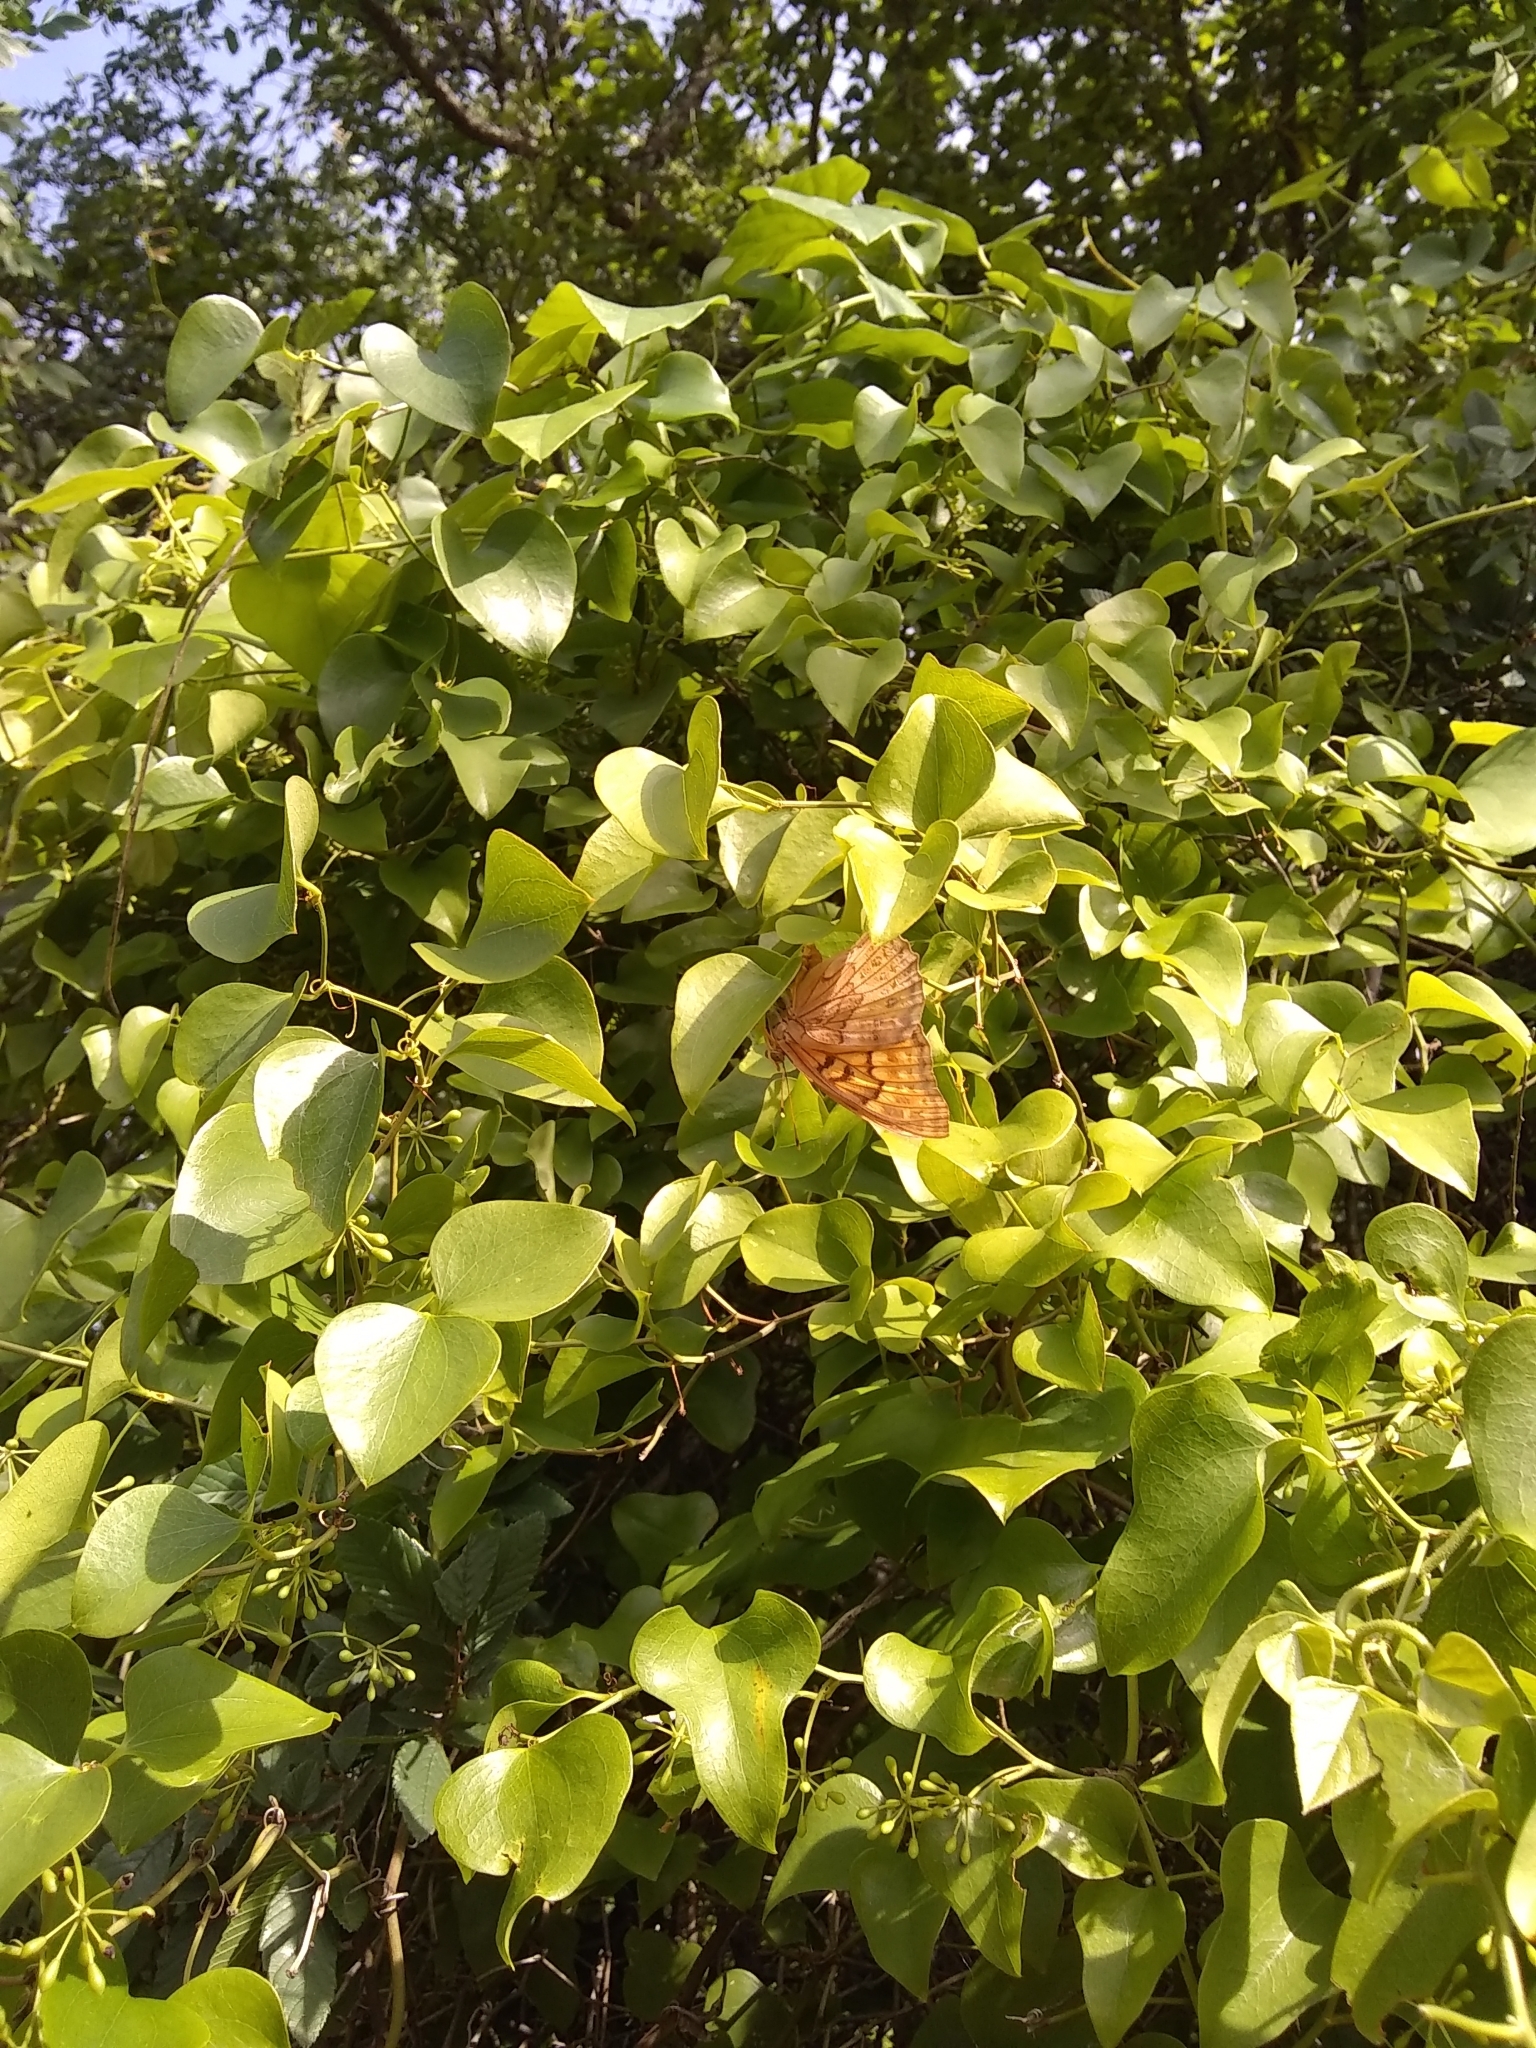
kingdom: Animalia
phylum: Arthropoda
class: Insecta
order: Lepidoptera
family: Nymphalidae
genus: Asterocampa
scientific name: Asterocampa clyton
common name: Tawny emperor
